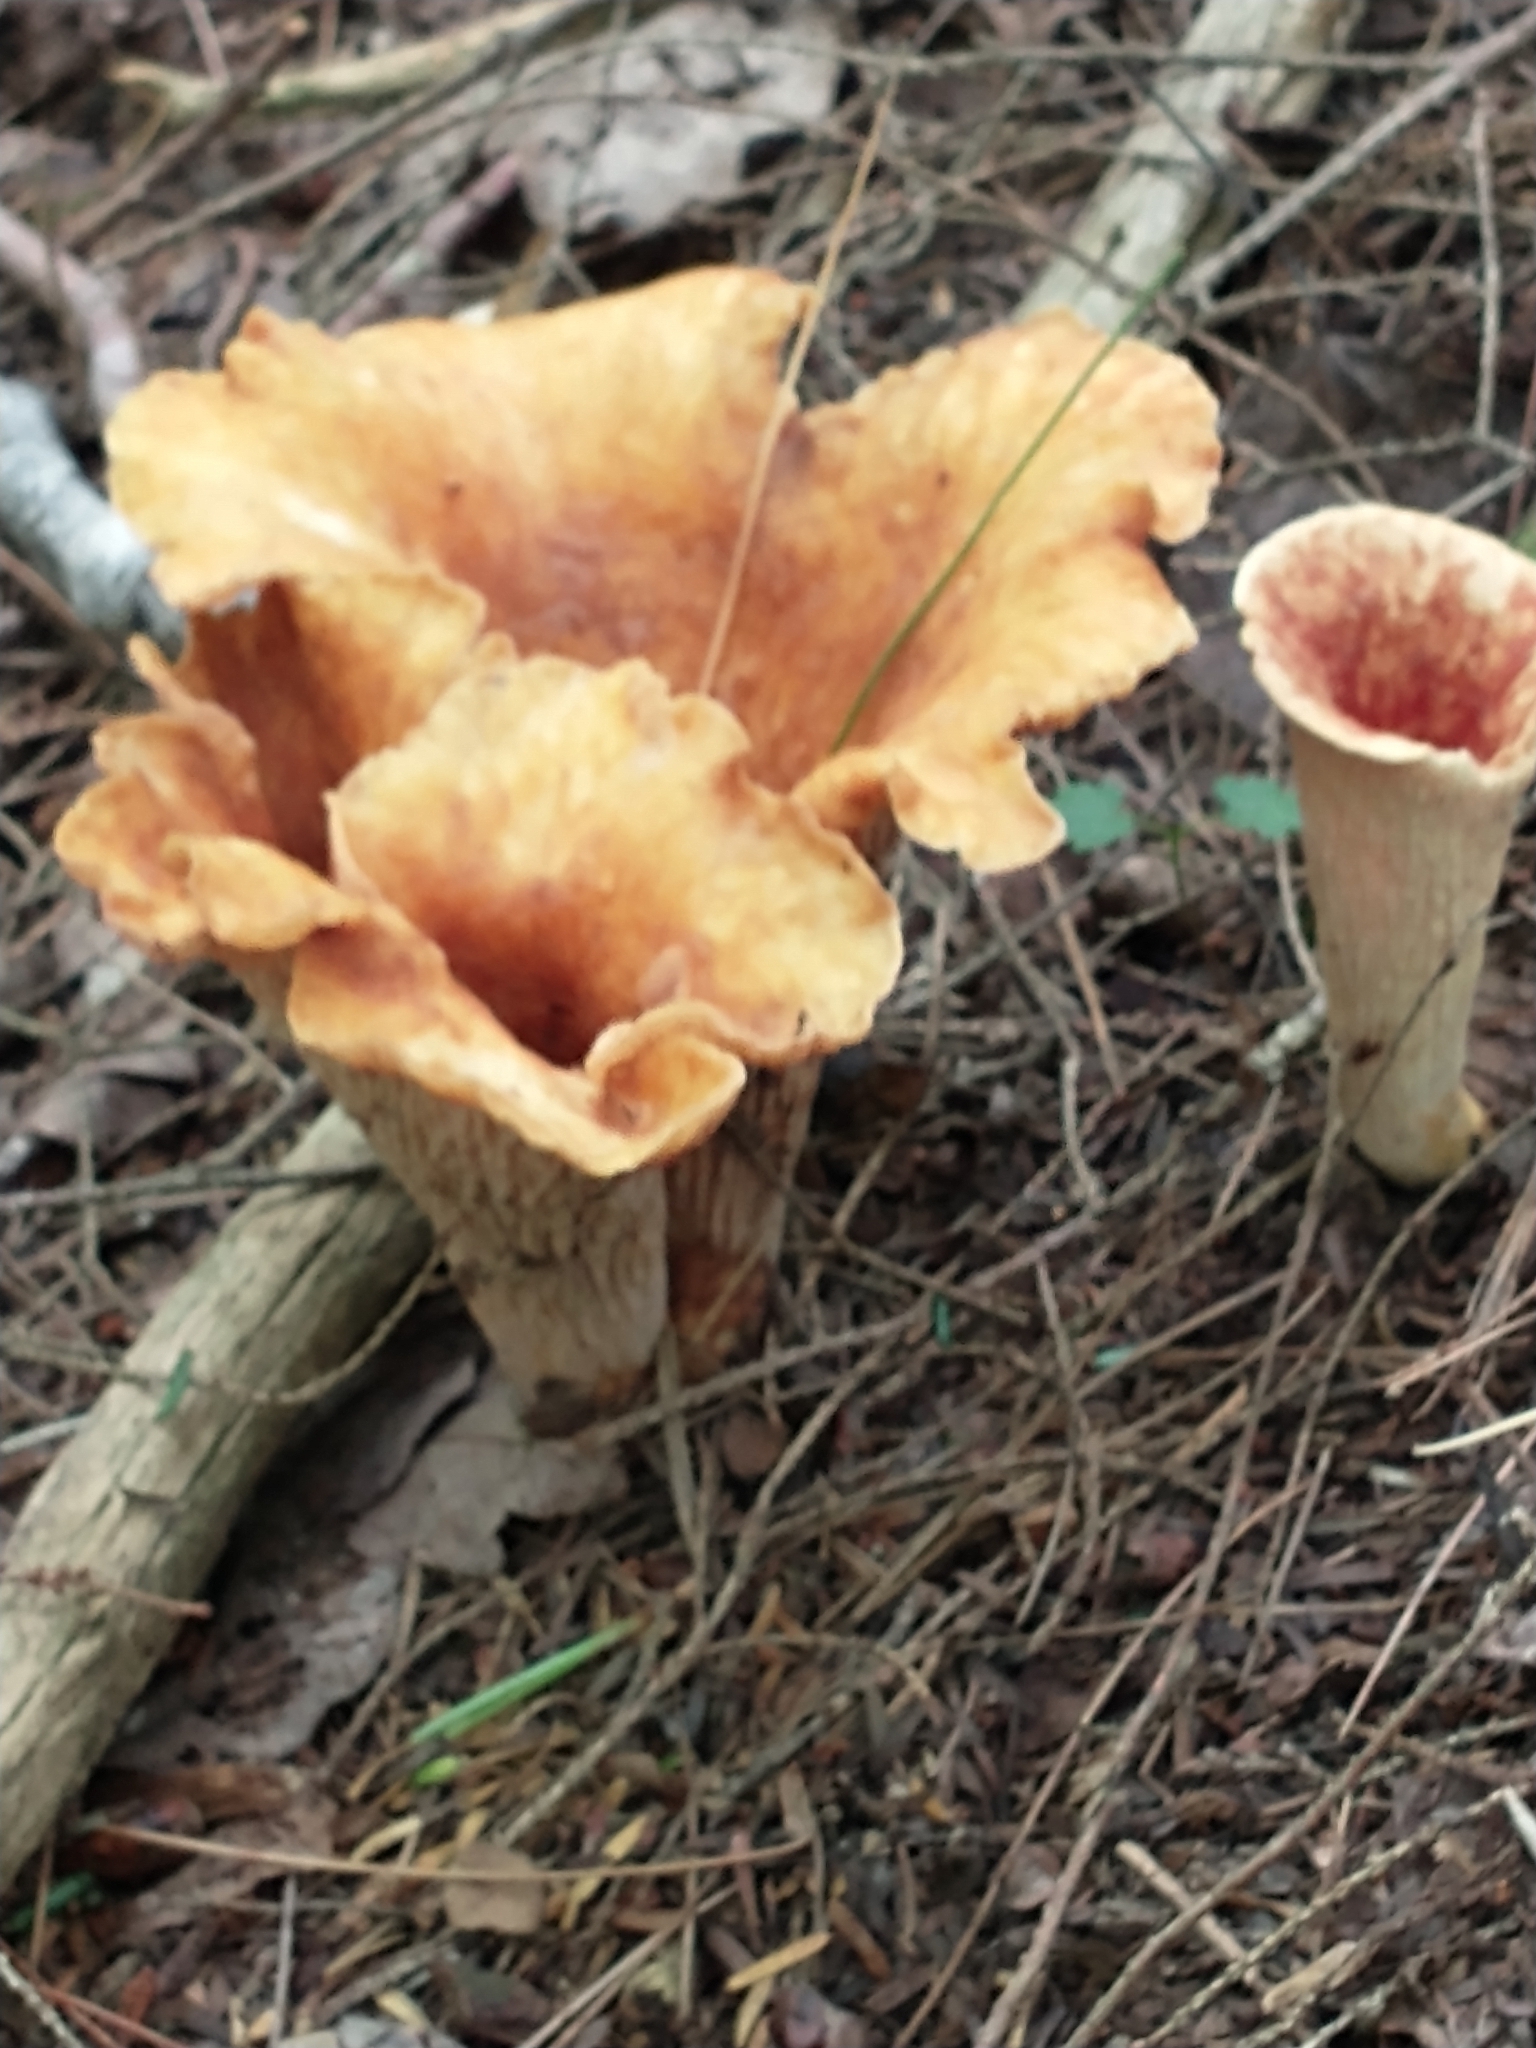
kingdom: Fungi
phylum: Basidiomycota
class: Agaricomycetes
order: Gomphales
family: Gomphaceae
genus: Turbinellus
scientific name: Turbinellus floccosus
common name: Scaly chanterelle
